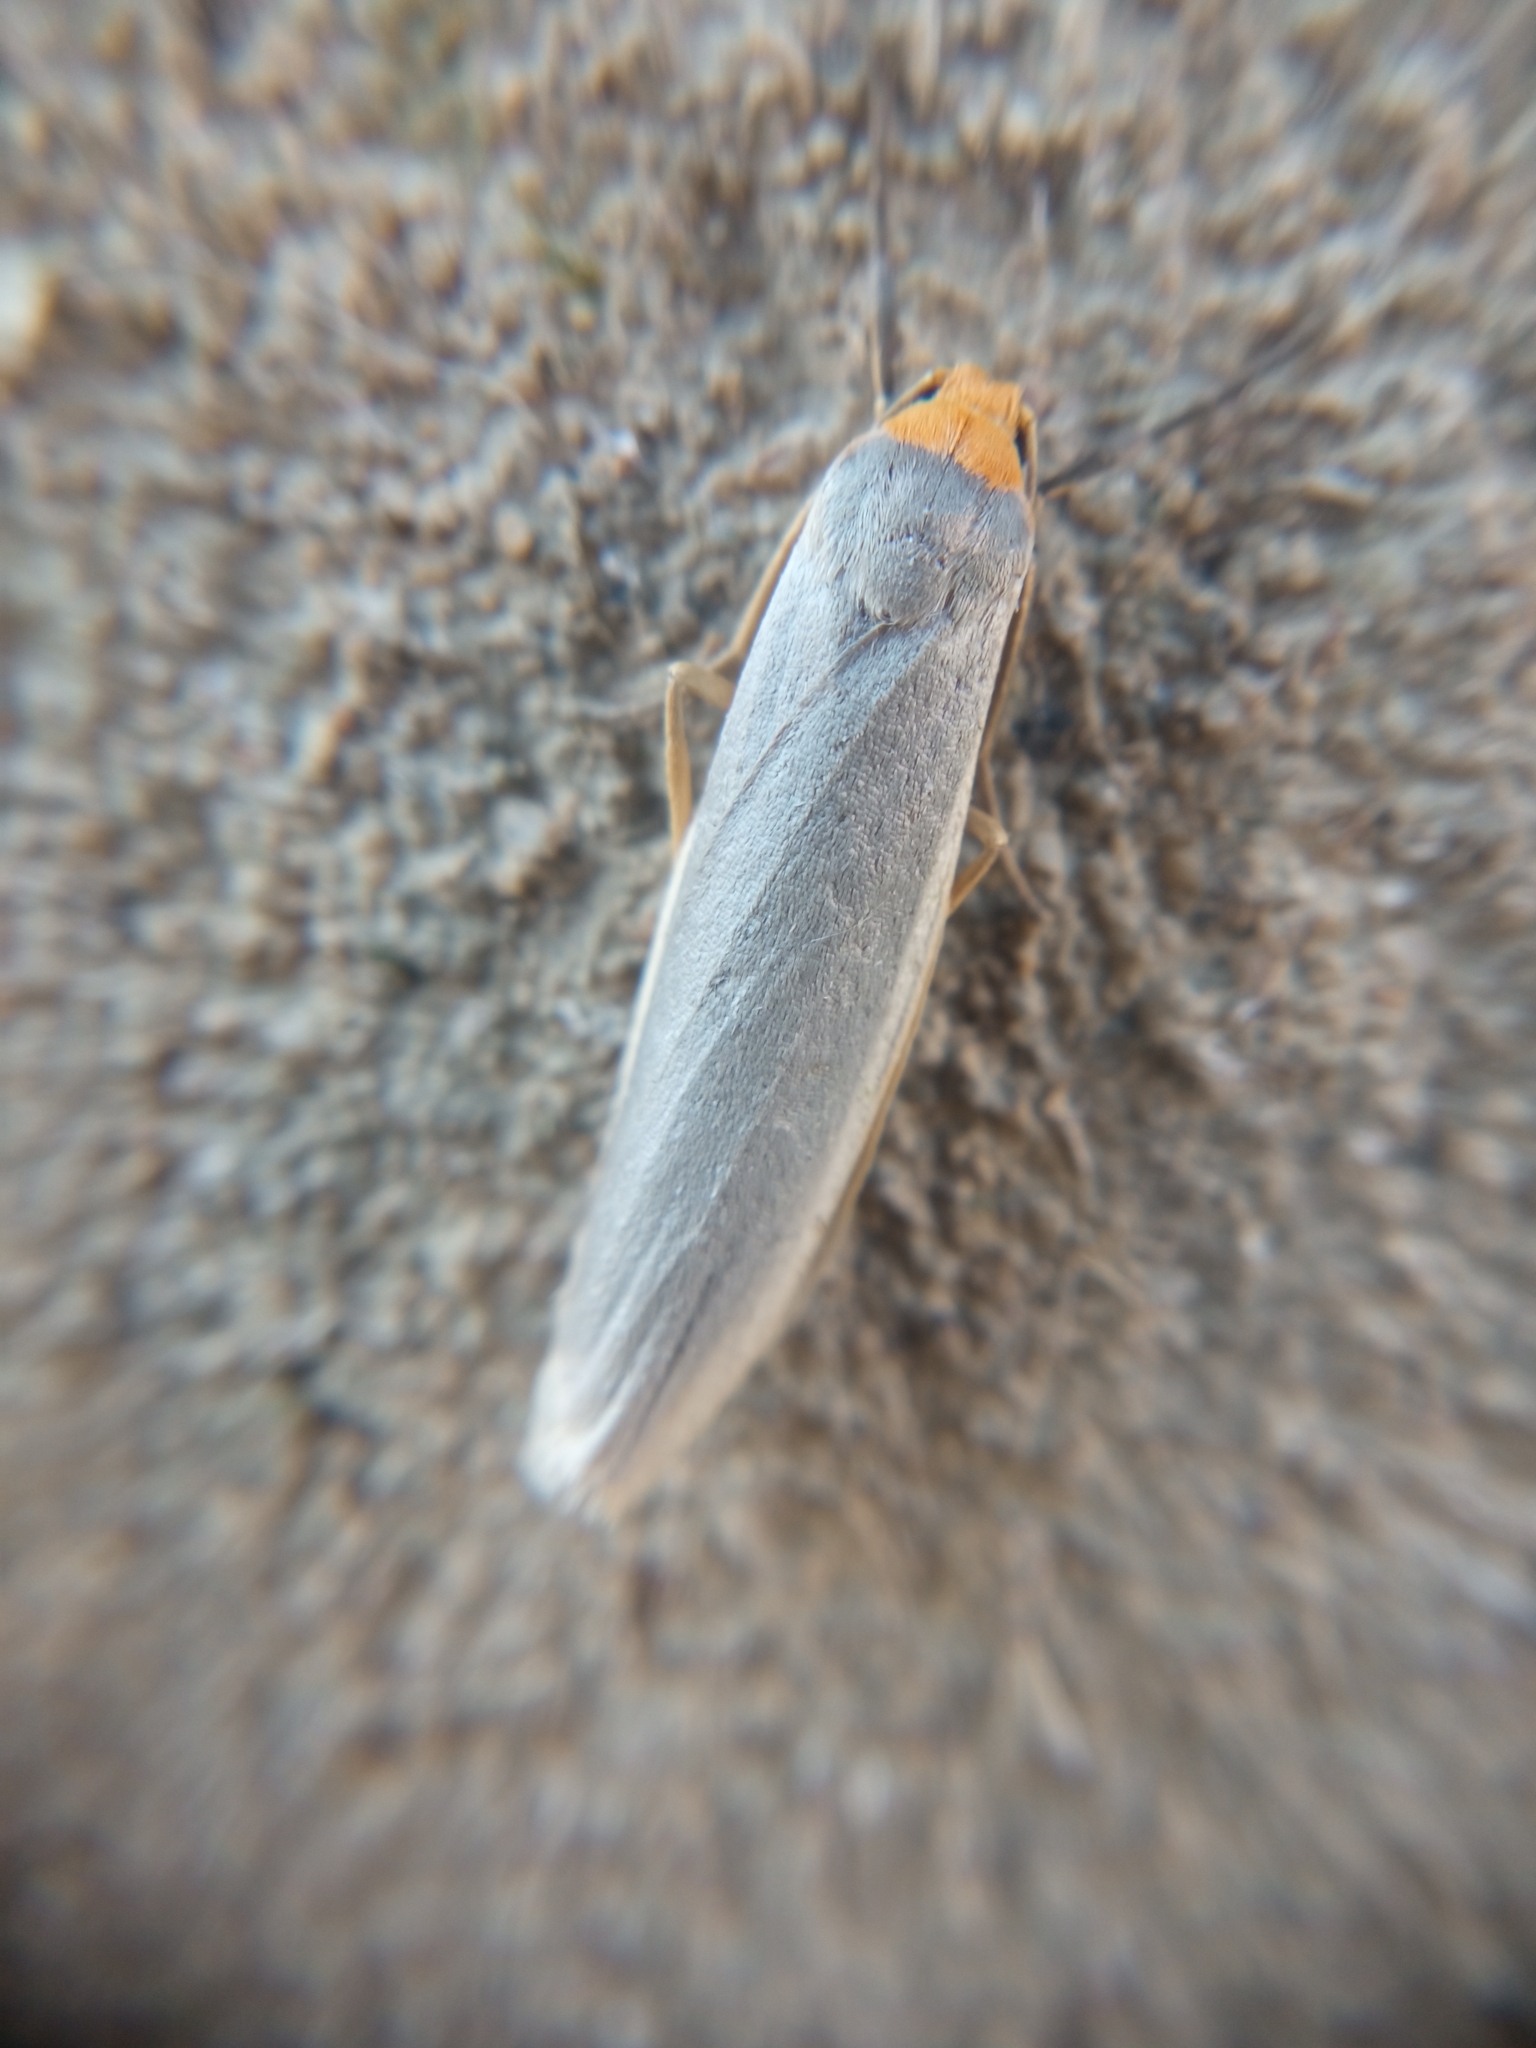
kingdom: Animalia
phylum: Arthropoda
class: Insecta
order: Lepidoptera
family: Erebidae
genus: Eilema
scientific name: Eilema caniola
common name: Hoary footman
